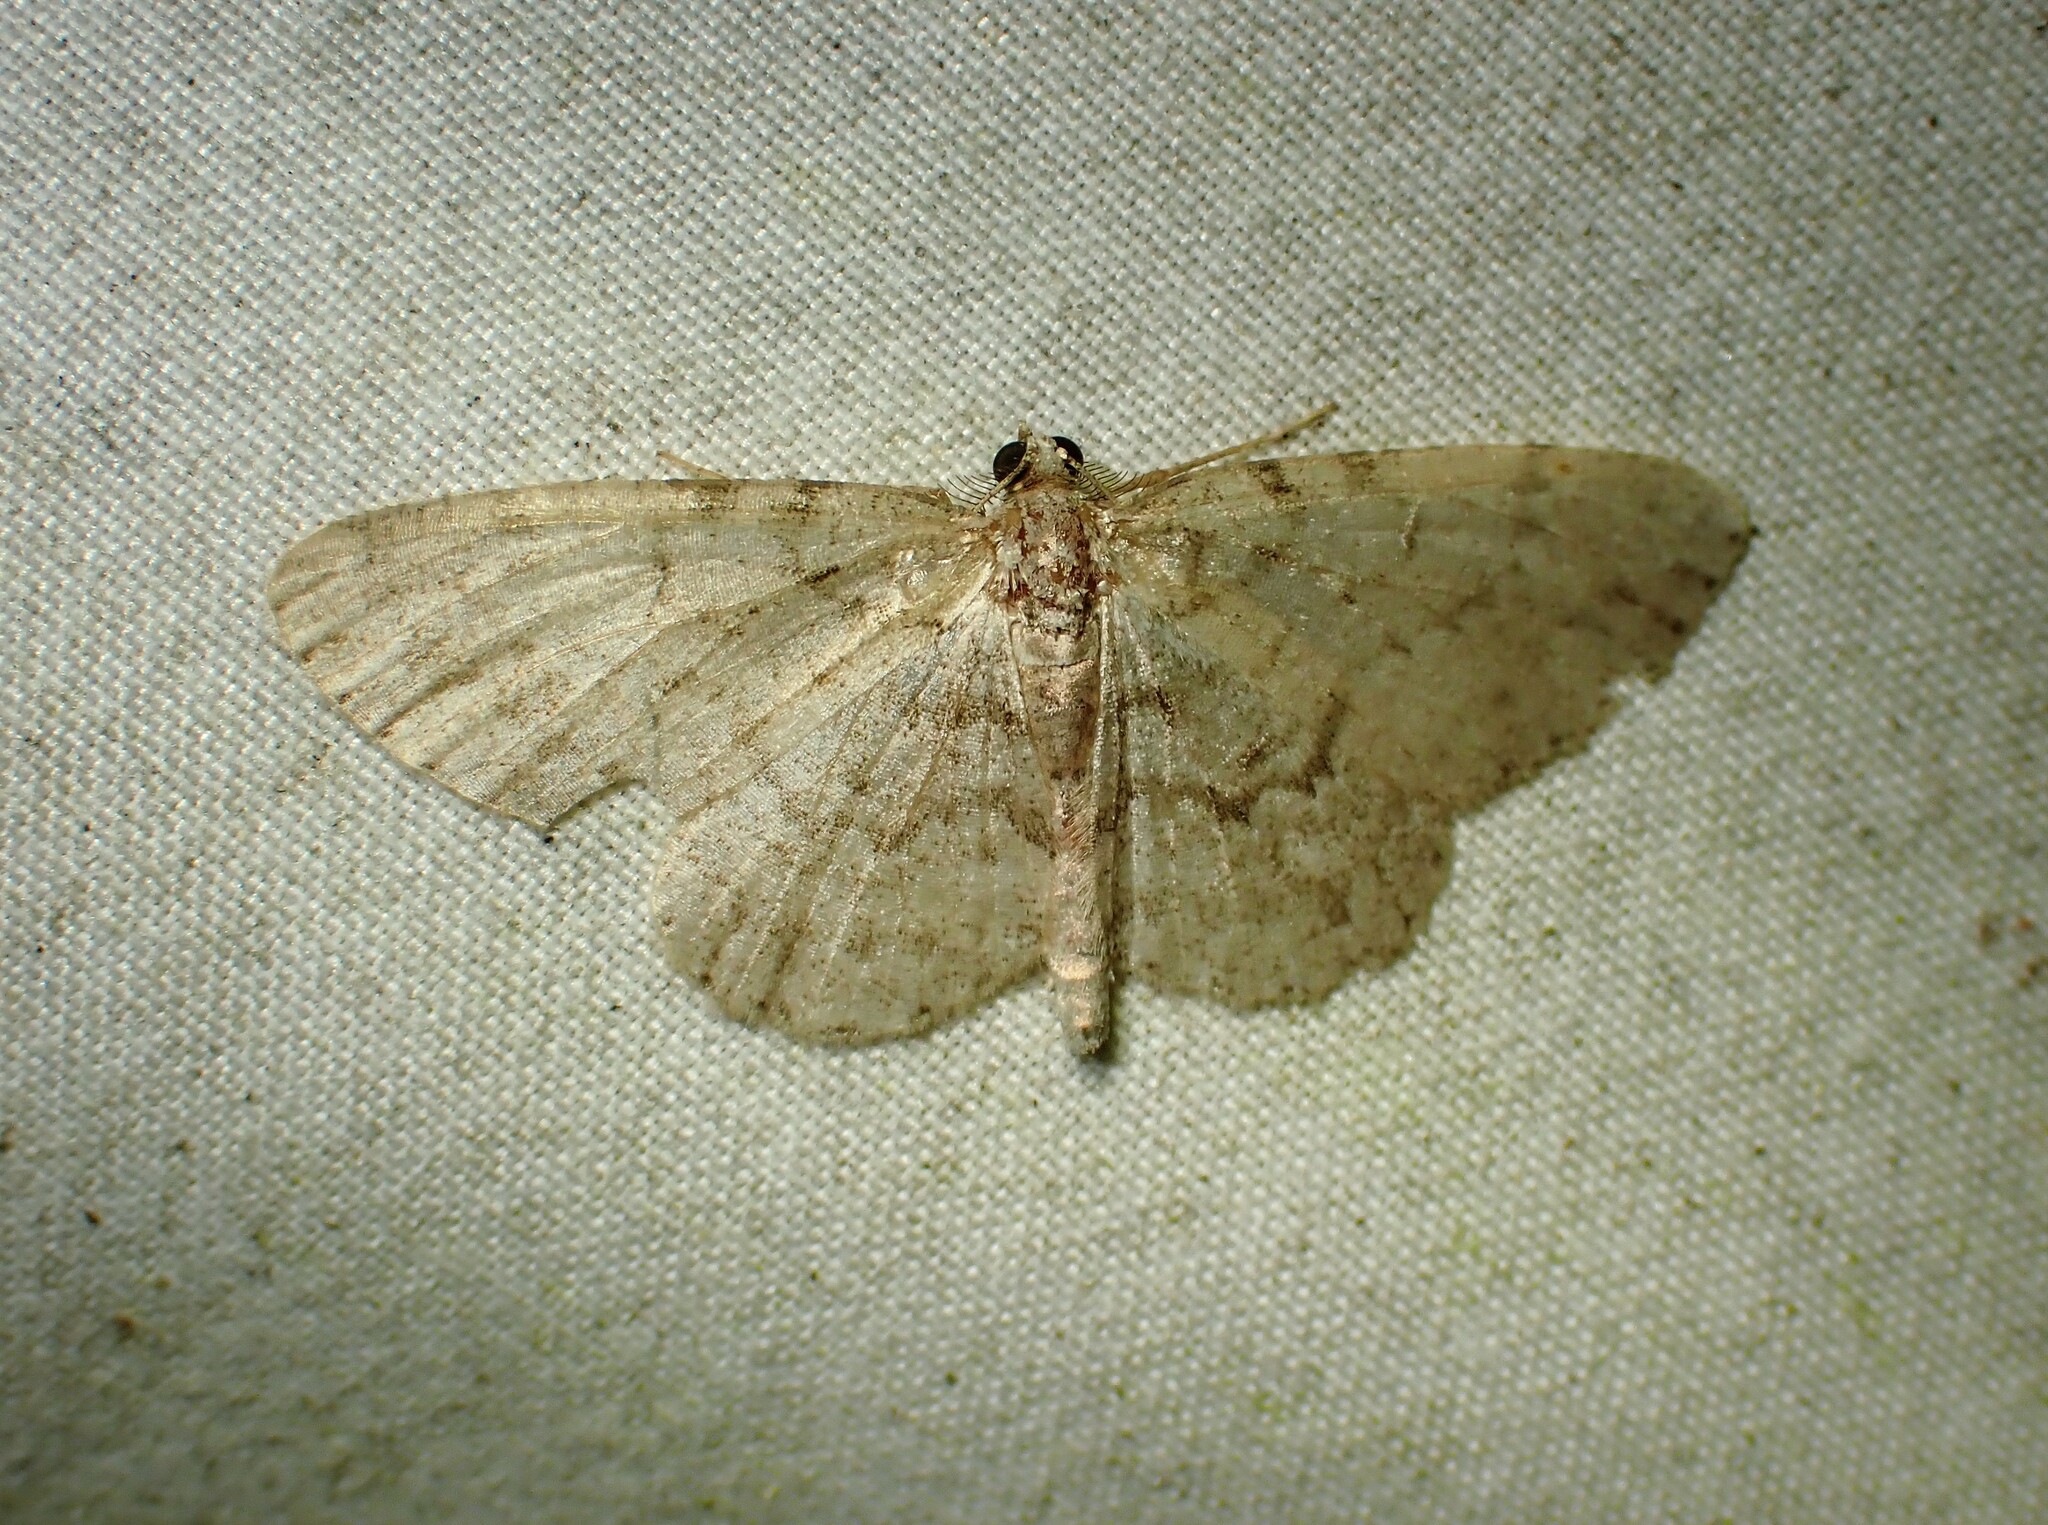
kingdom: Animalia
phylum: Arthropoda
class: Insecta
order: Lepidoptera
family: Geometridae
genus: Protoboarmia
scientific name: Protoboarmia porcelaria
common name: Porcelain gray
